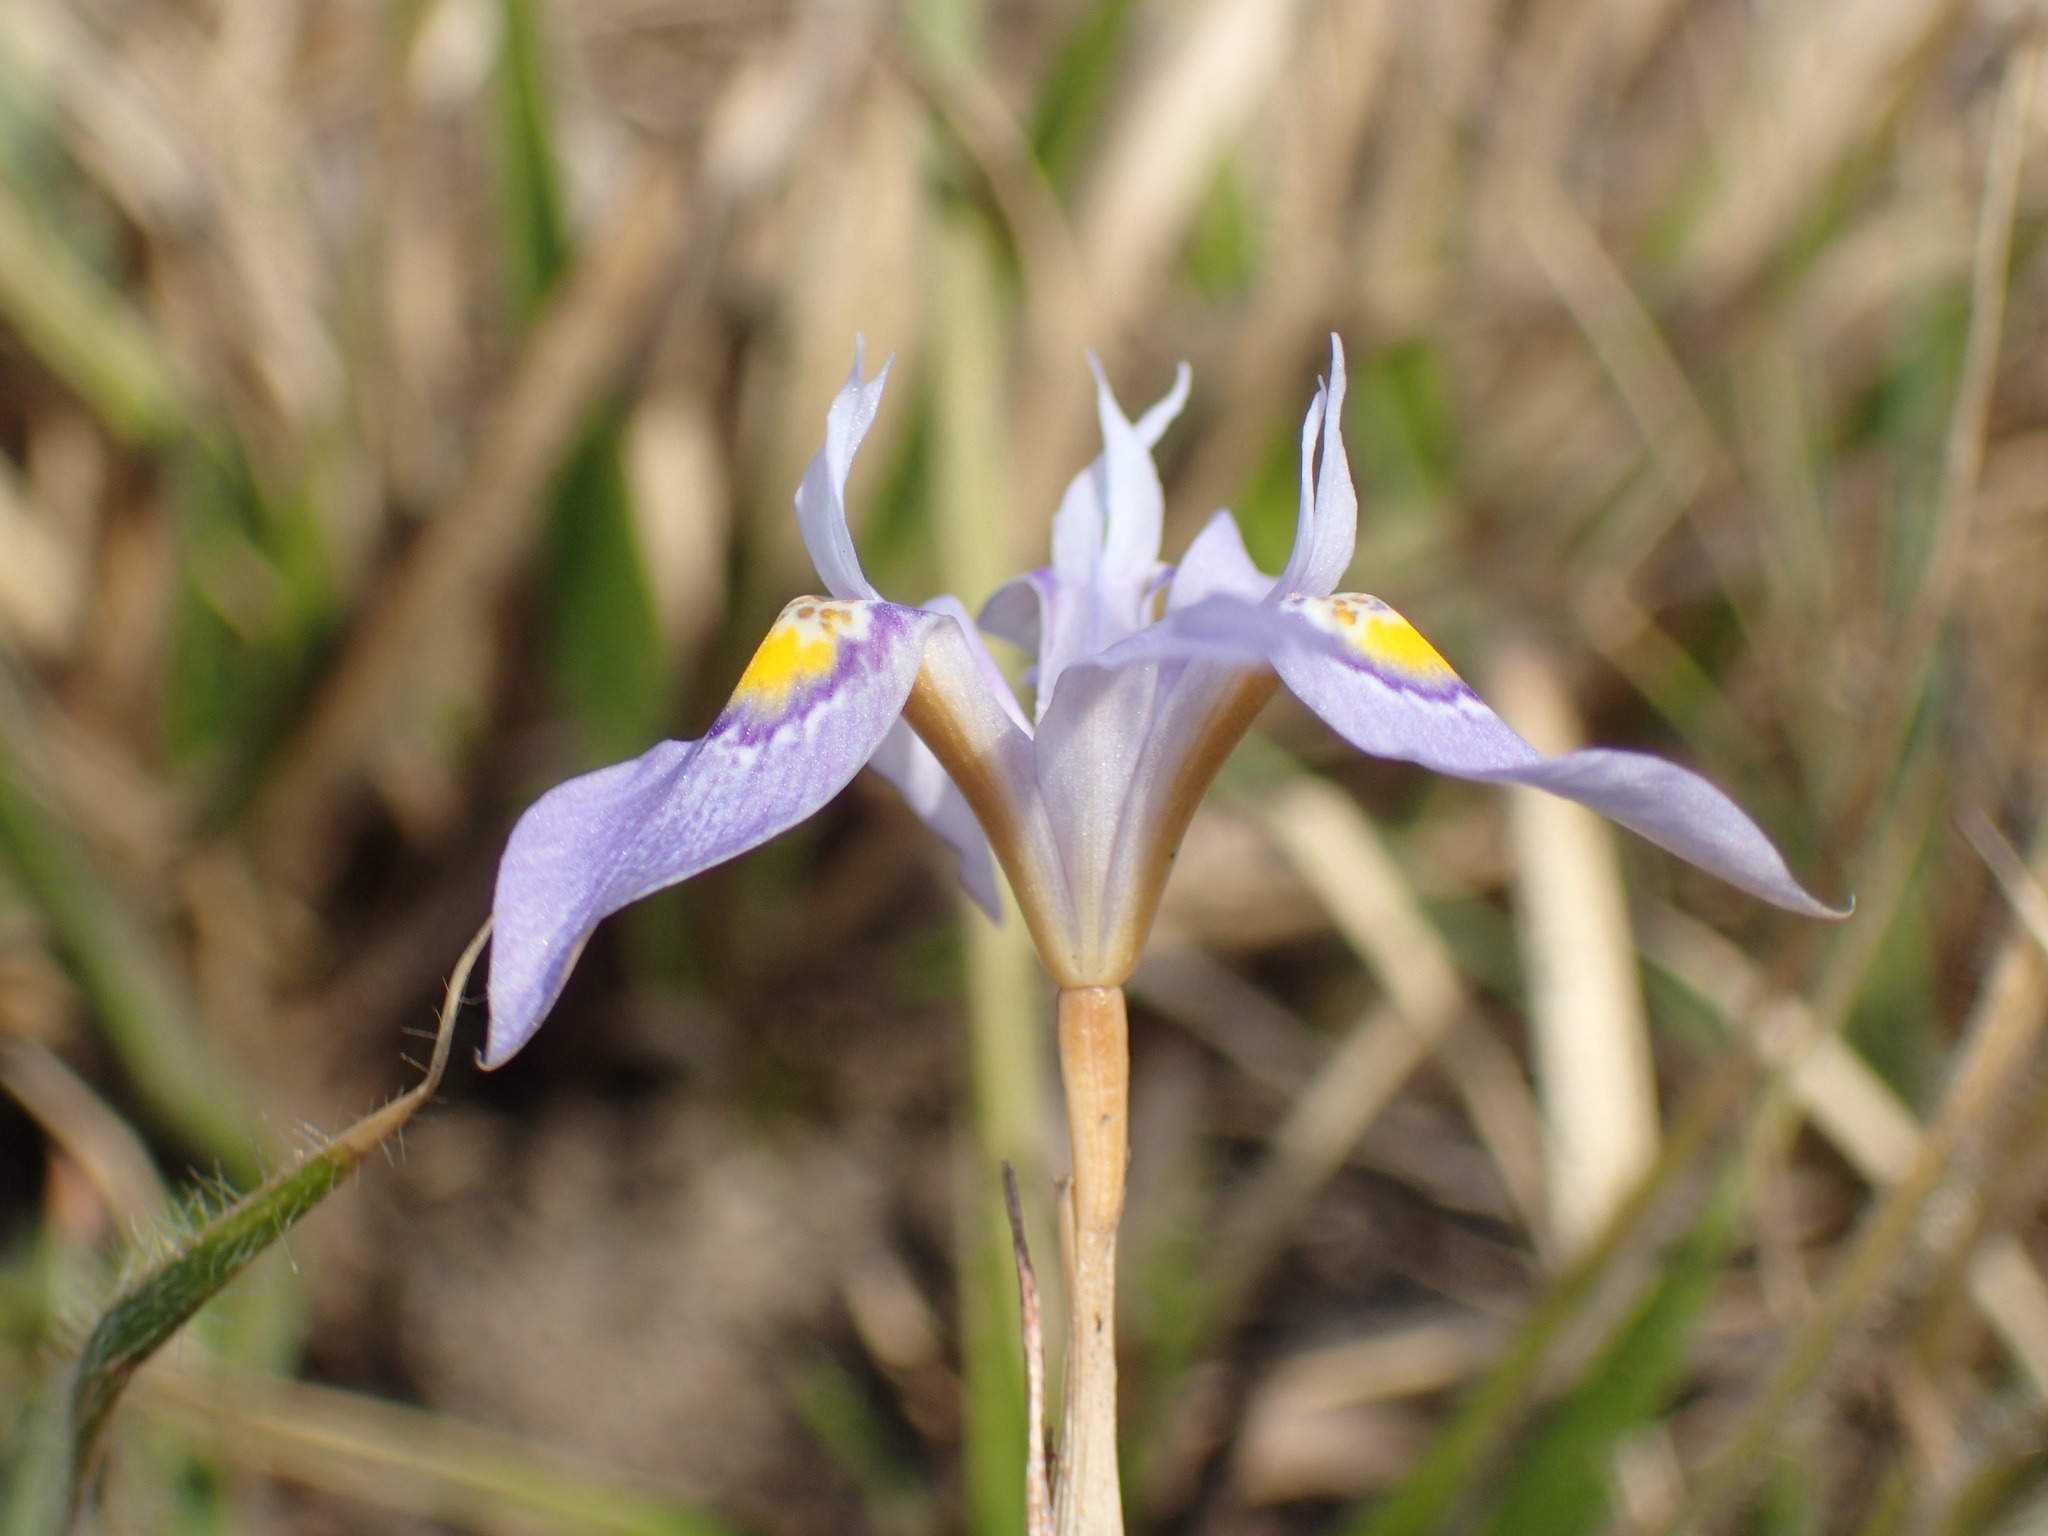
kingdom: Plantae
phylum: Tracheophyta
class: Liliopsida
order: Asparagales
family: Iridaceae
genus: Moraea
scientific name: Moraea stricta
